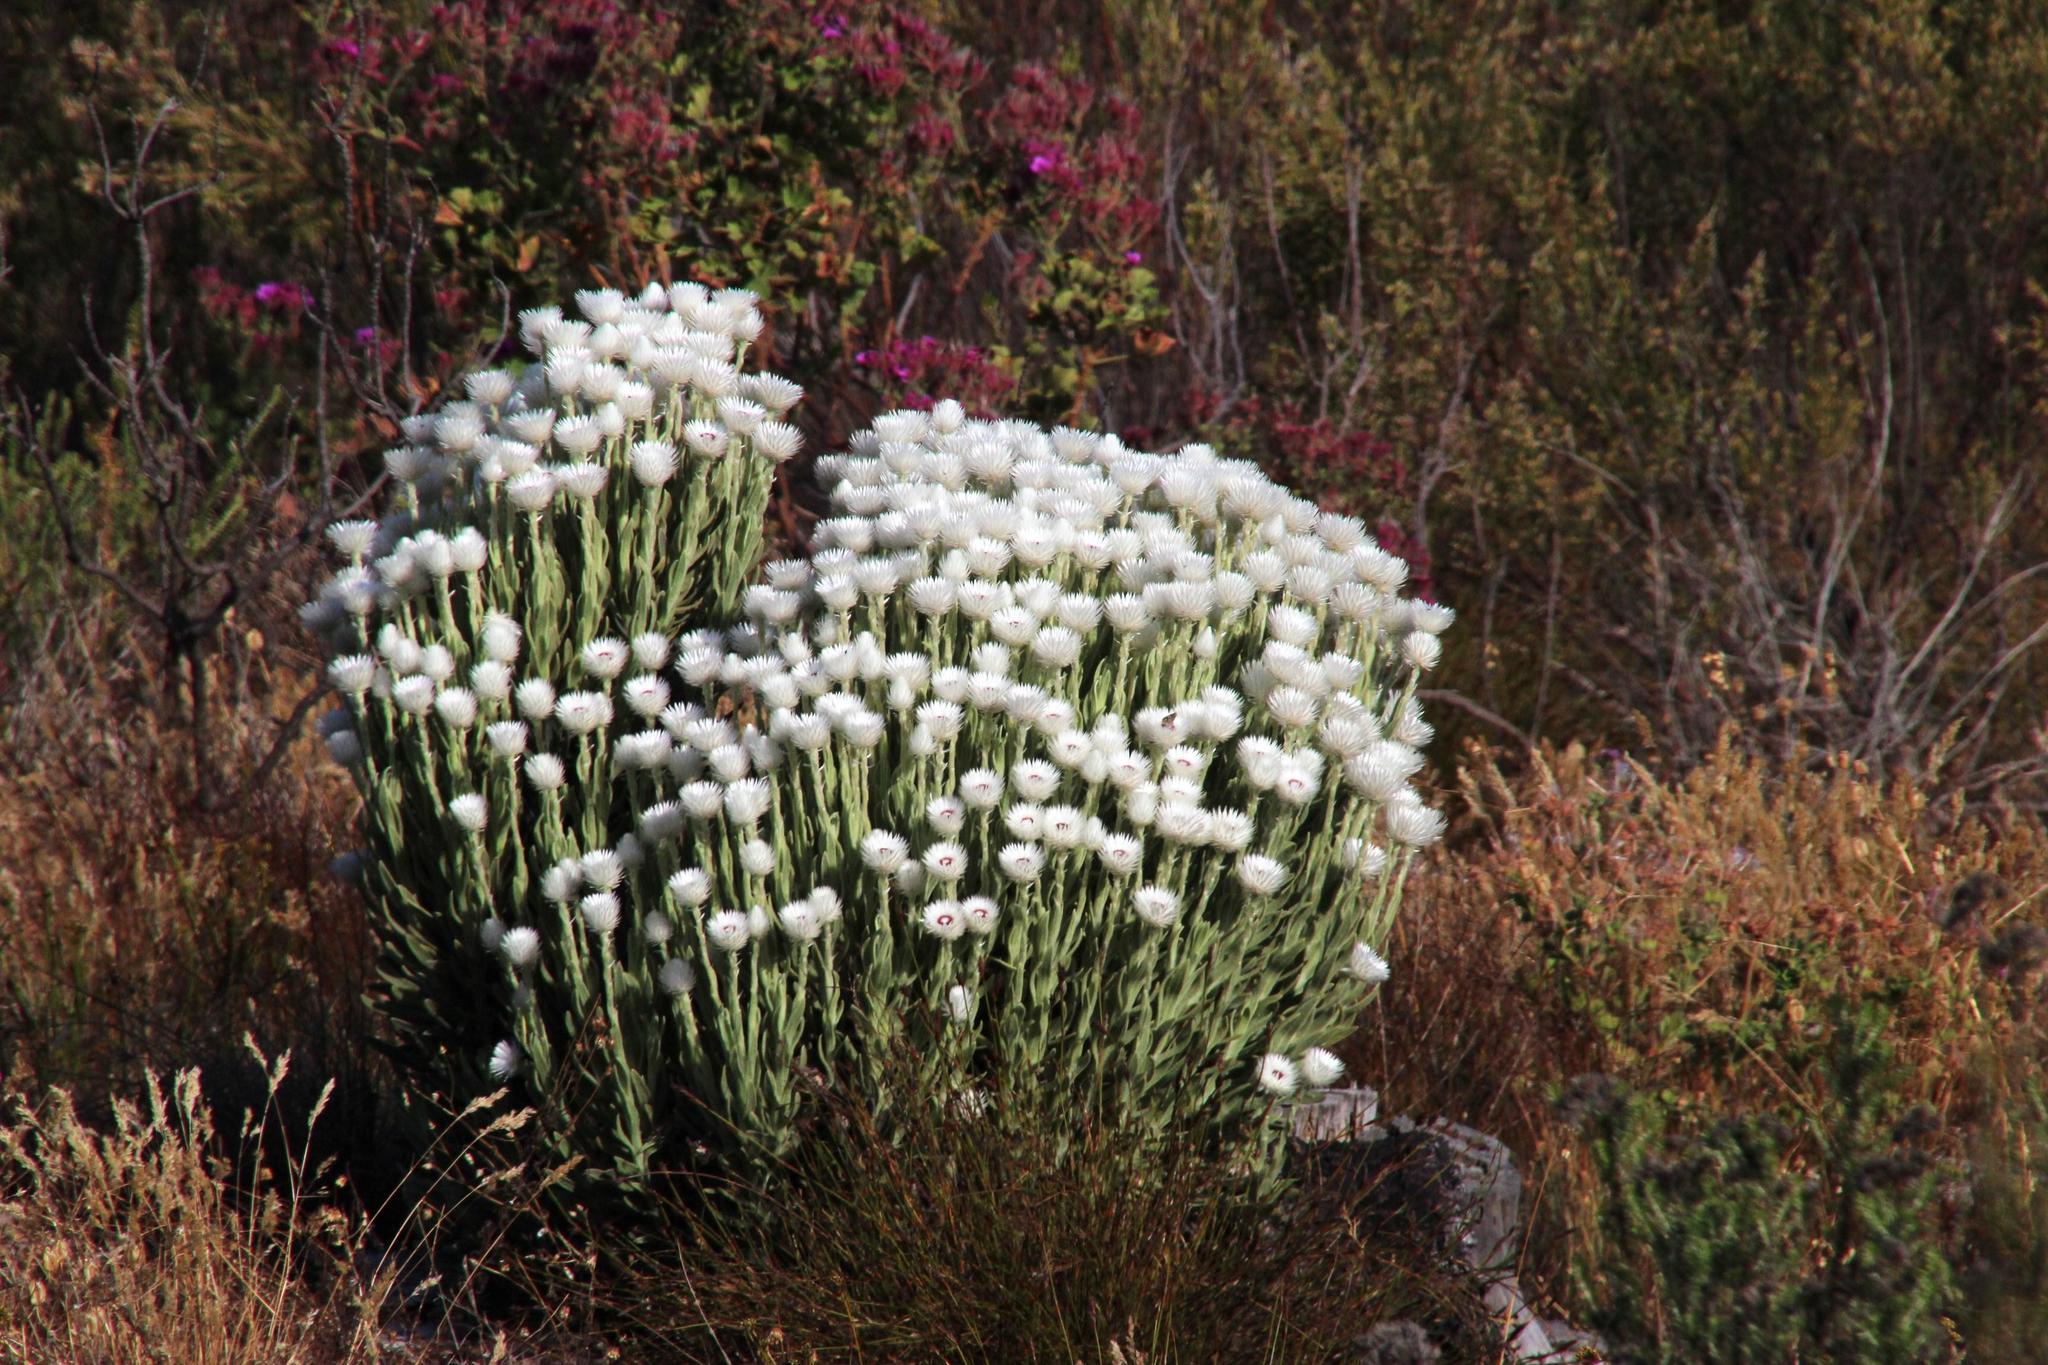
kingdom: Plantae
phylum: Tracheophyta
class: Magnoliopsida
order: Asterales
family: Asteraceae
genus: Syncarpha
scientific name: Syncarpha vestita
